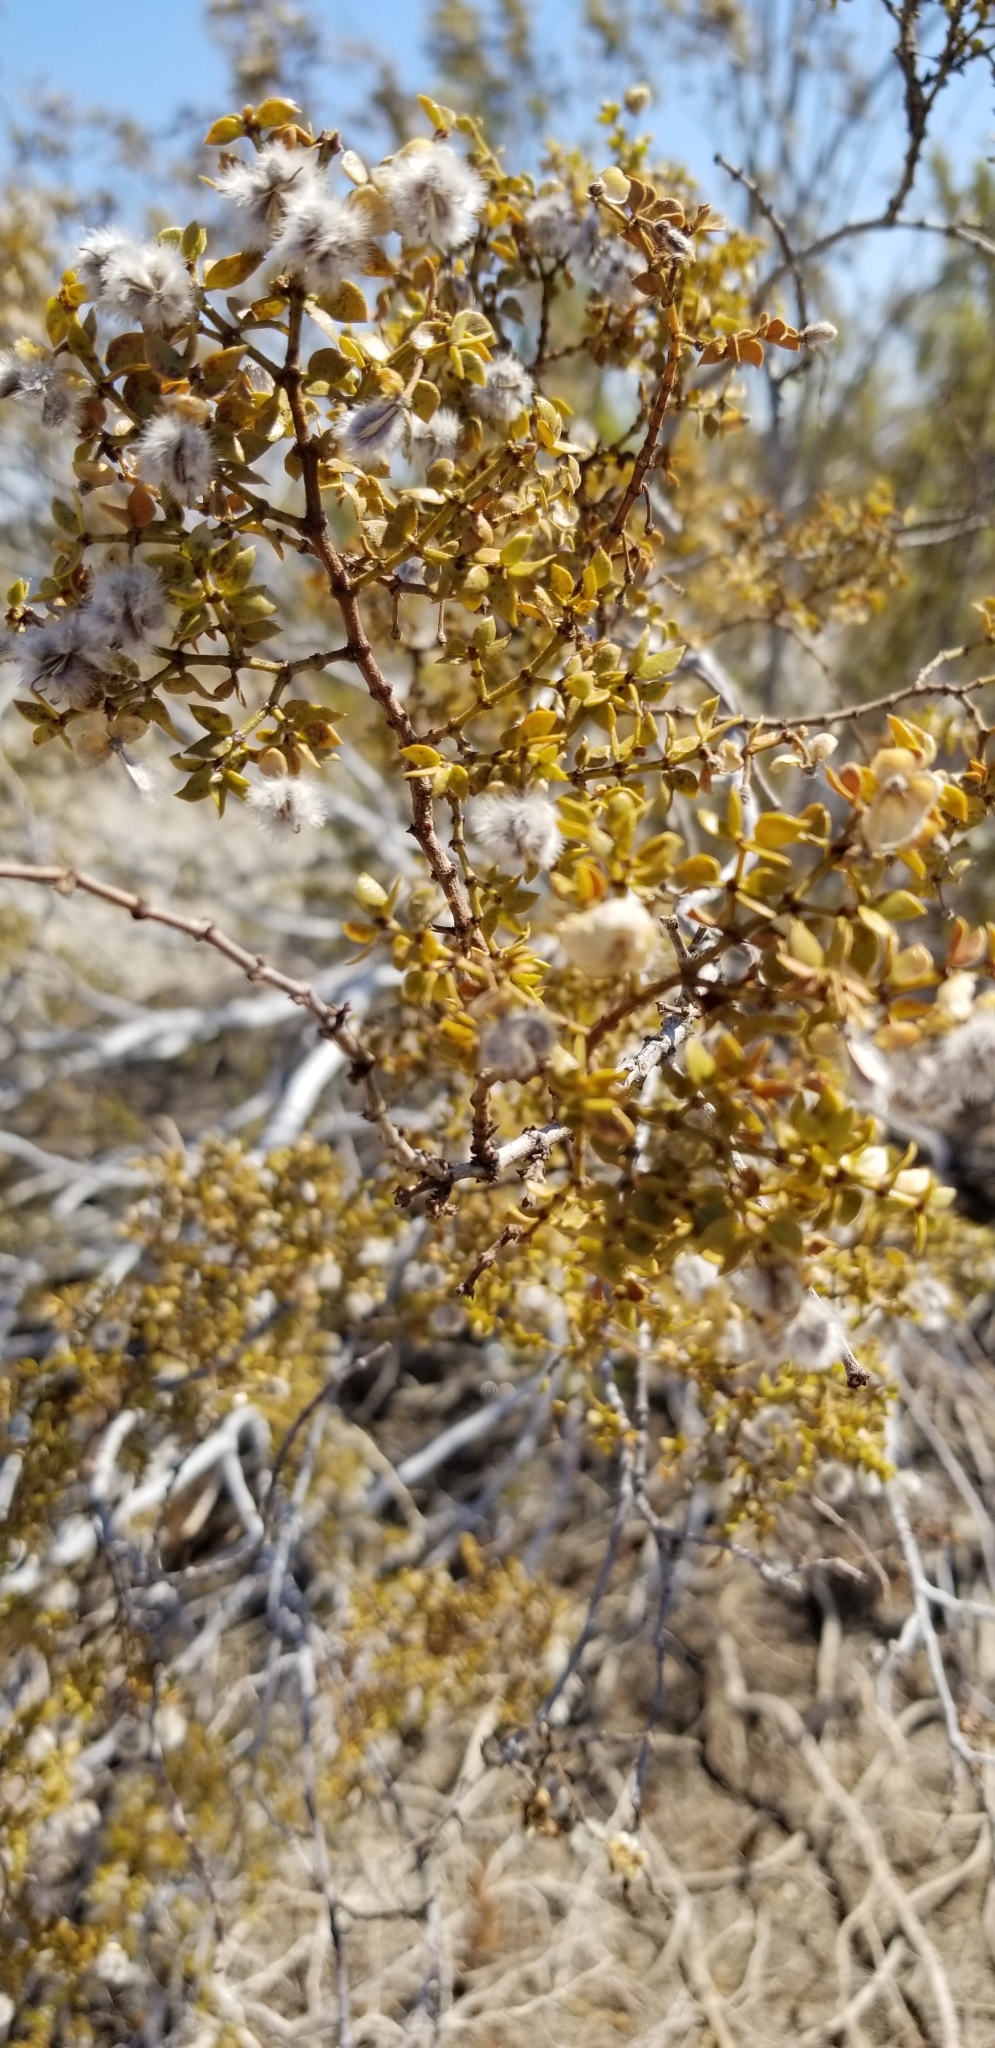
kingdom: Plantae
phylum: Tracheophyta
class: Magnoliopsida
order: Zygophyllales
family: Zygophyllaceae
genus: Larrea
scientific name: Larrea tridentata
